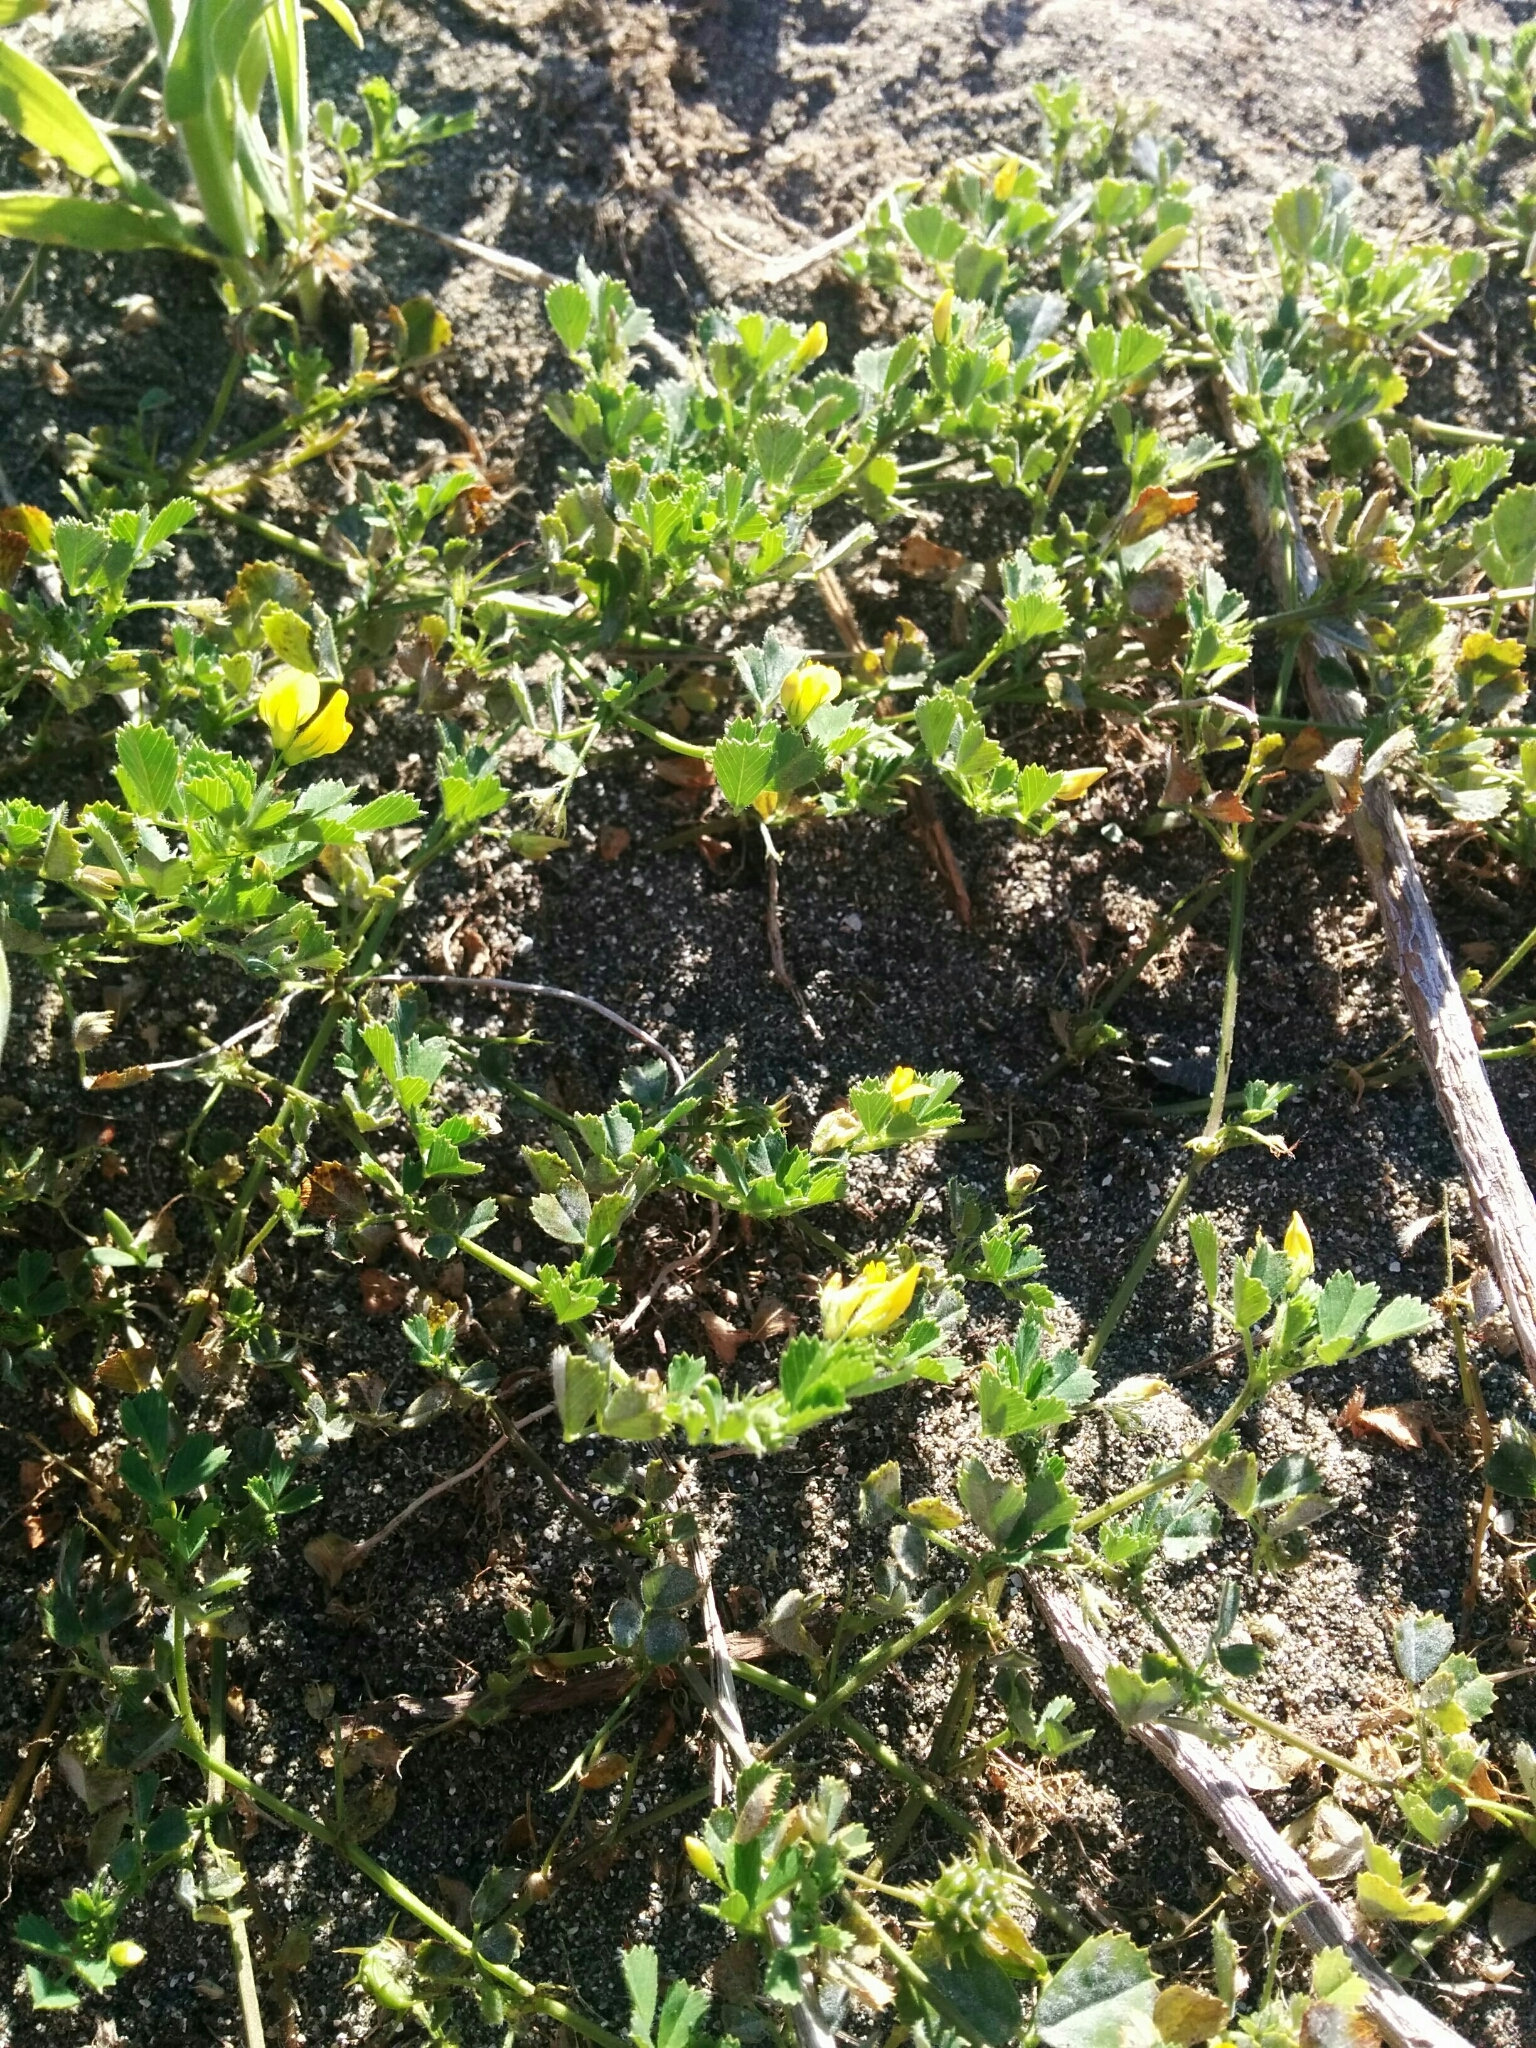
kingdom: Plantae
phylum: Tracheophyta
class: Magnoliopsida
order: Fabales
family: Fabaceae
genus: Medicago
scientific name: Medicago polymorpha
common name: Burclover
